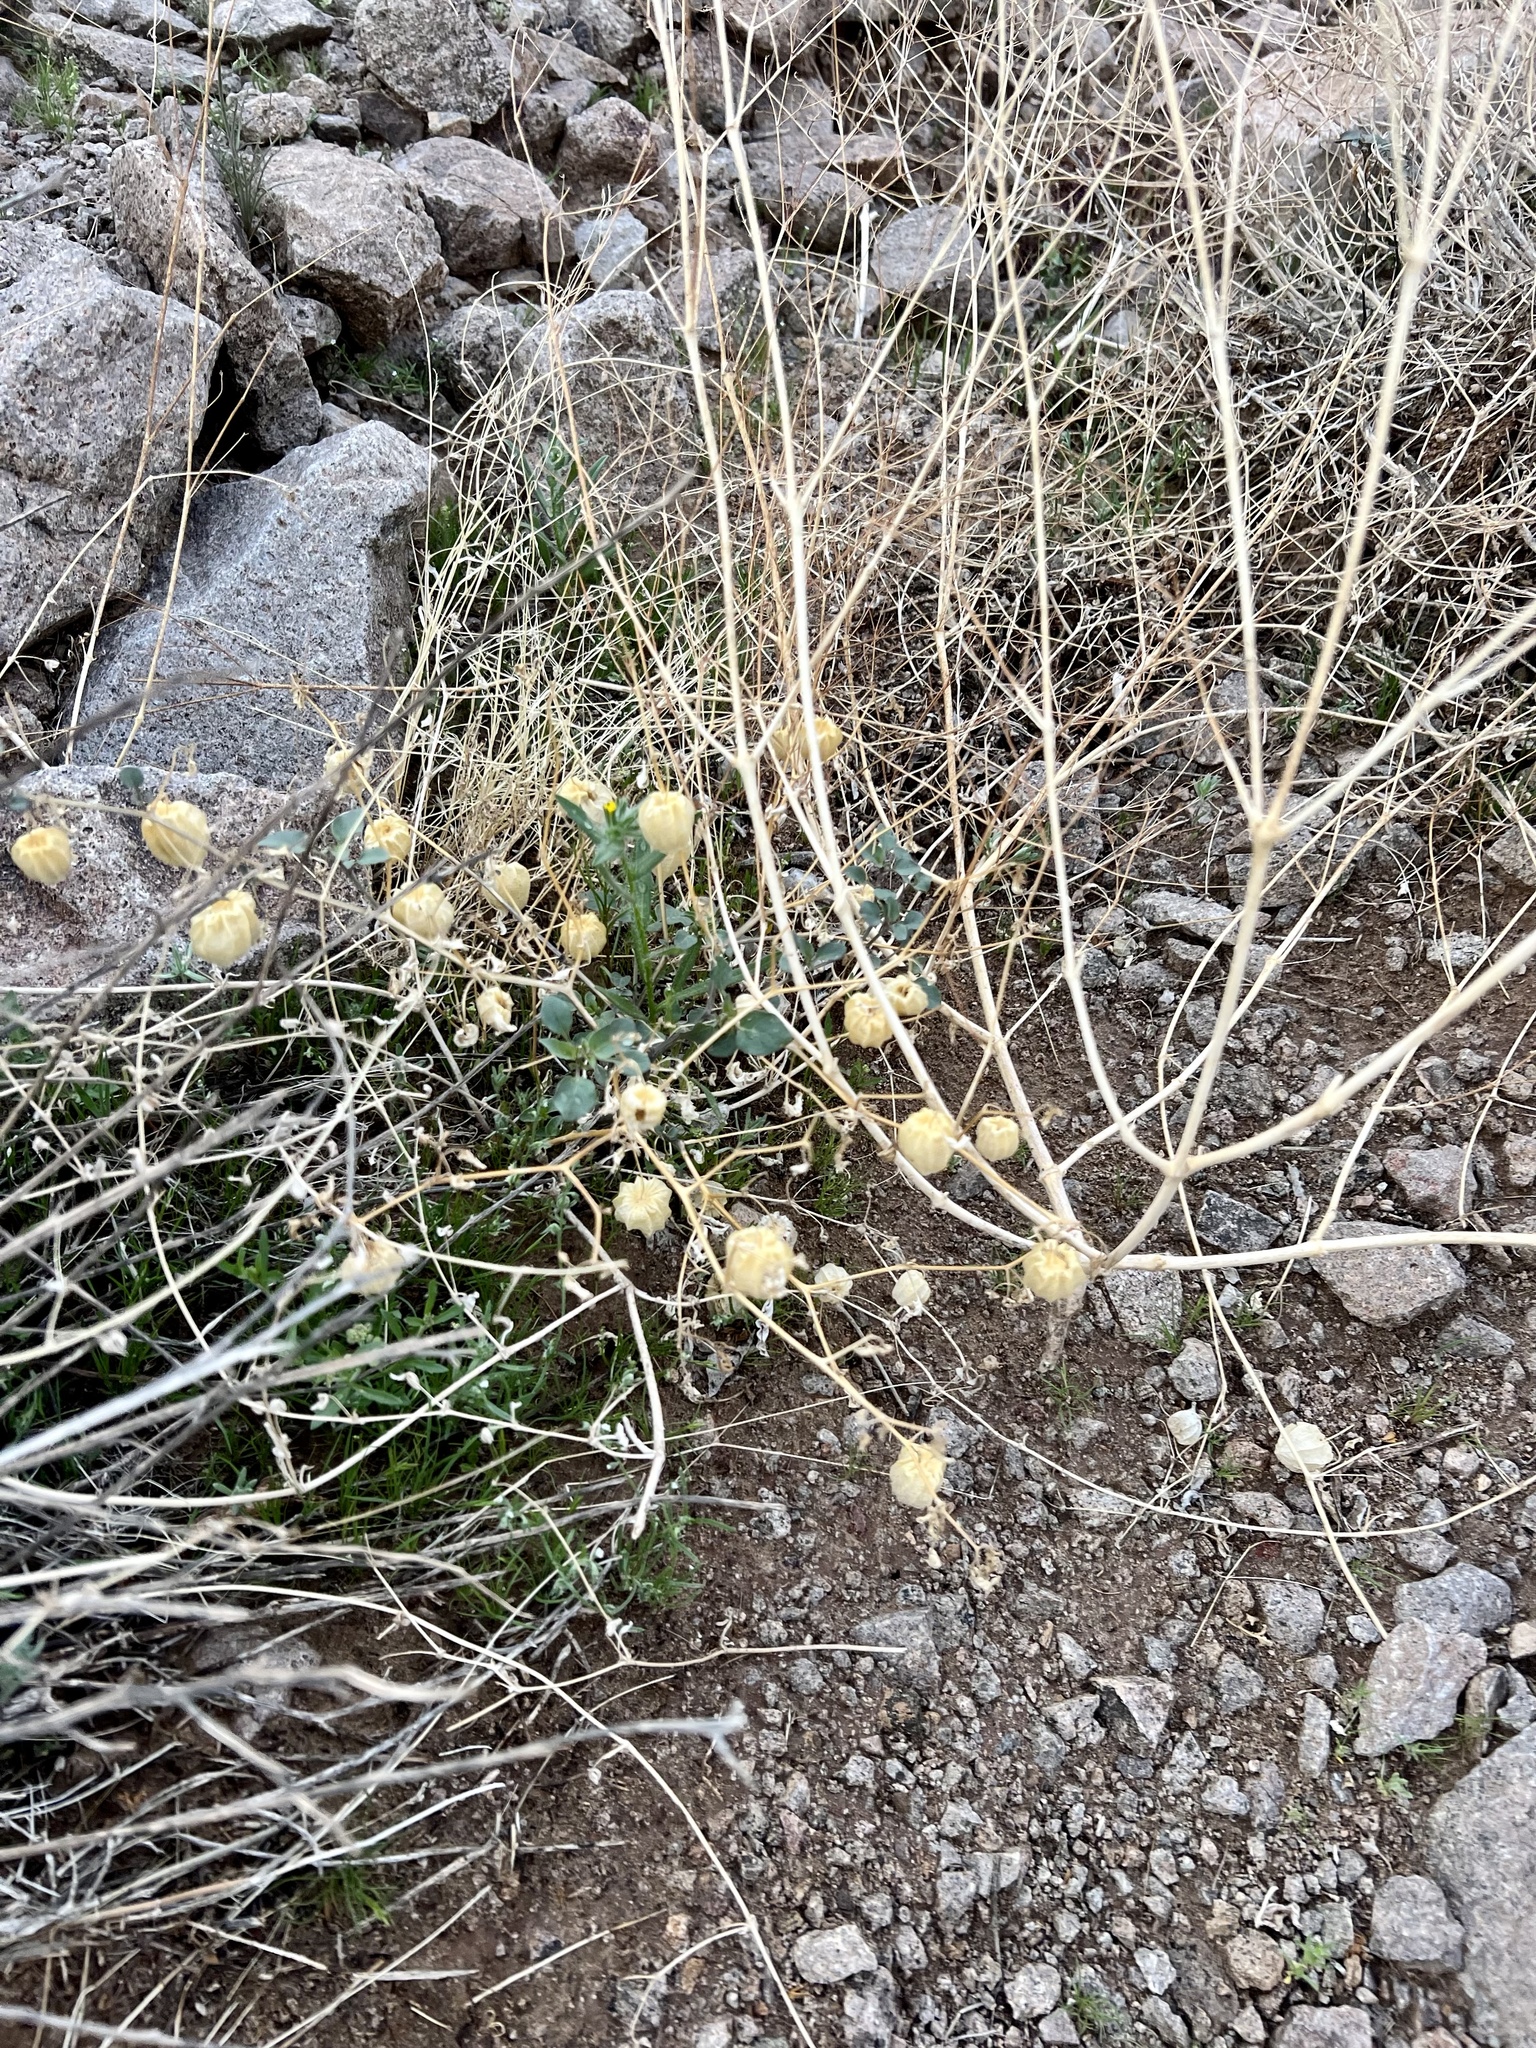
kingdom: Plantae
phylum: Tracheophyta
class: Magnoliopsida
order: Solanales
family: Solanaceae
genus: Physalis
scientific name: Physalis crassifolia
